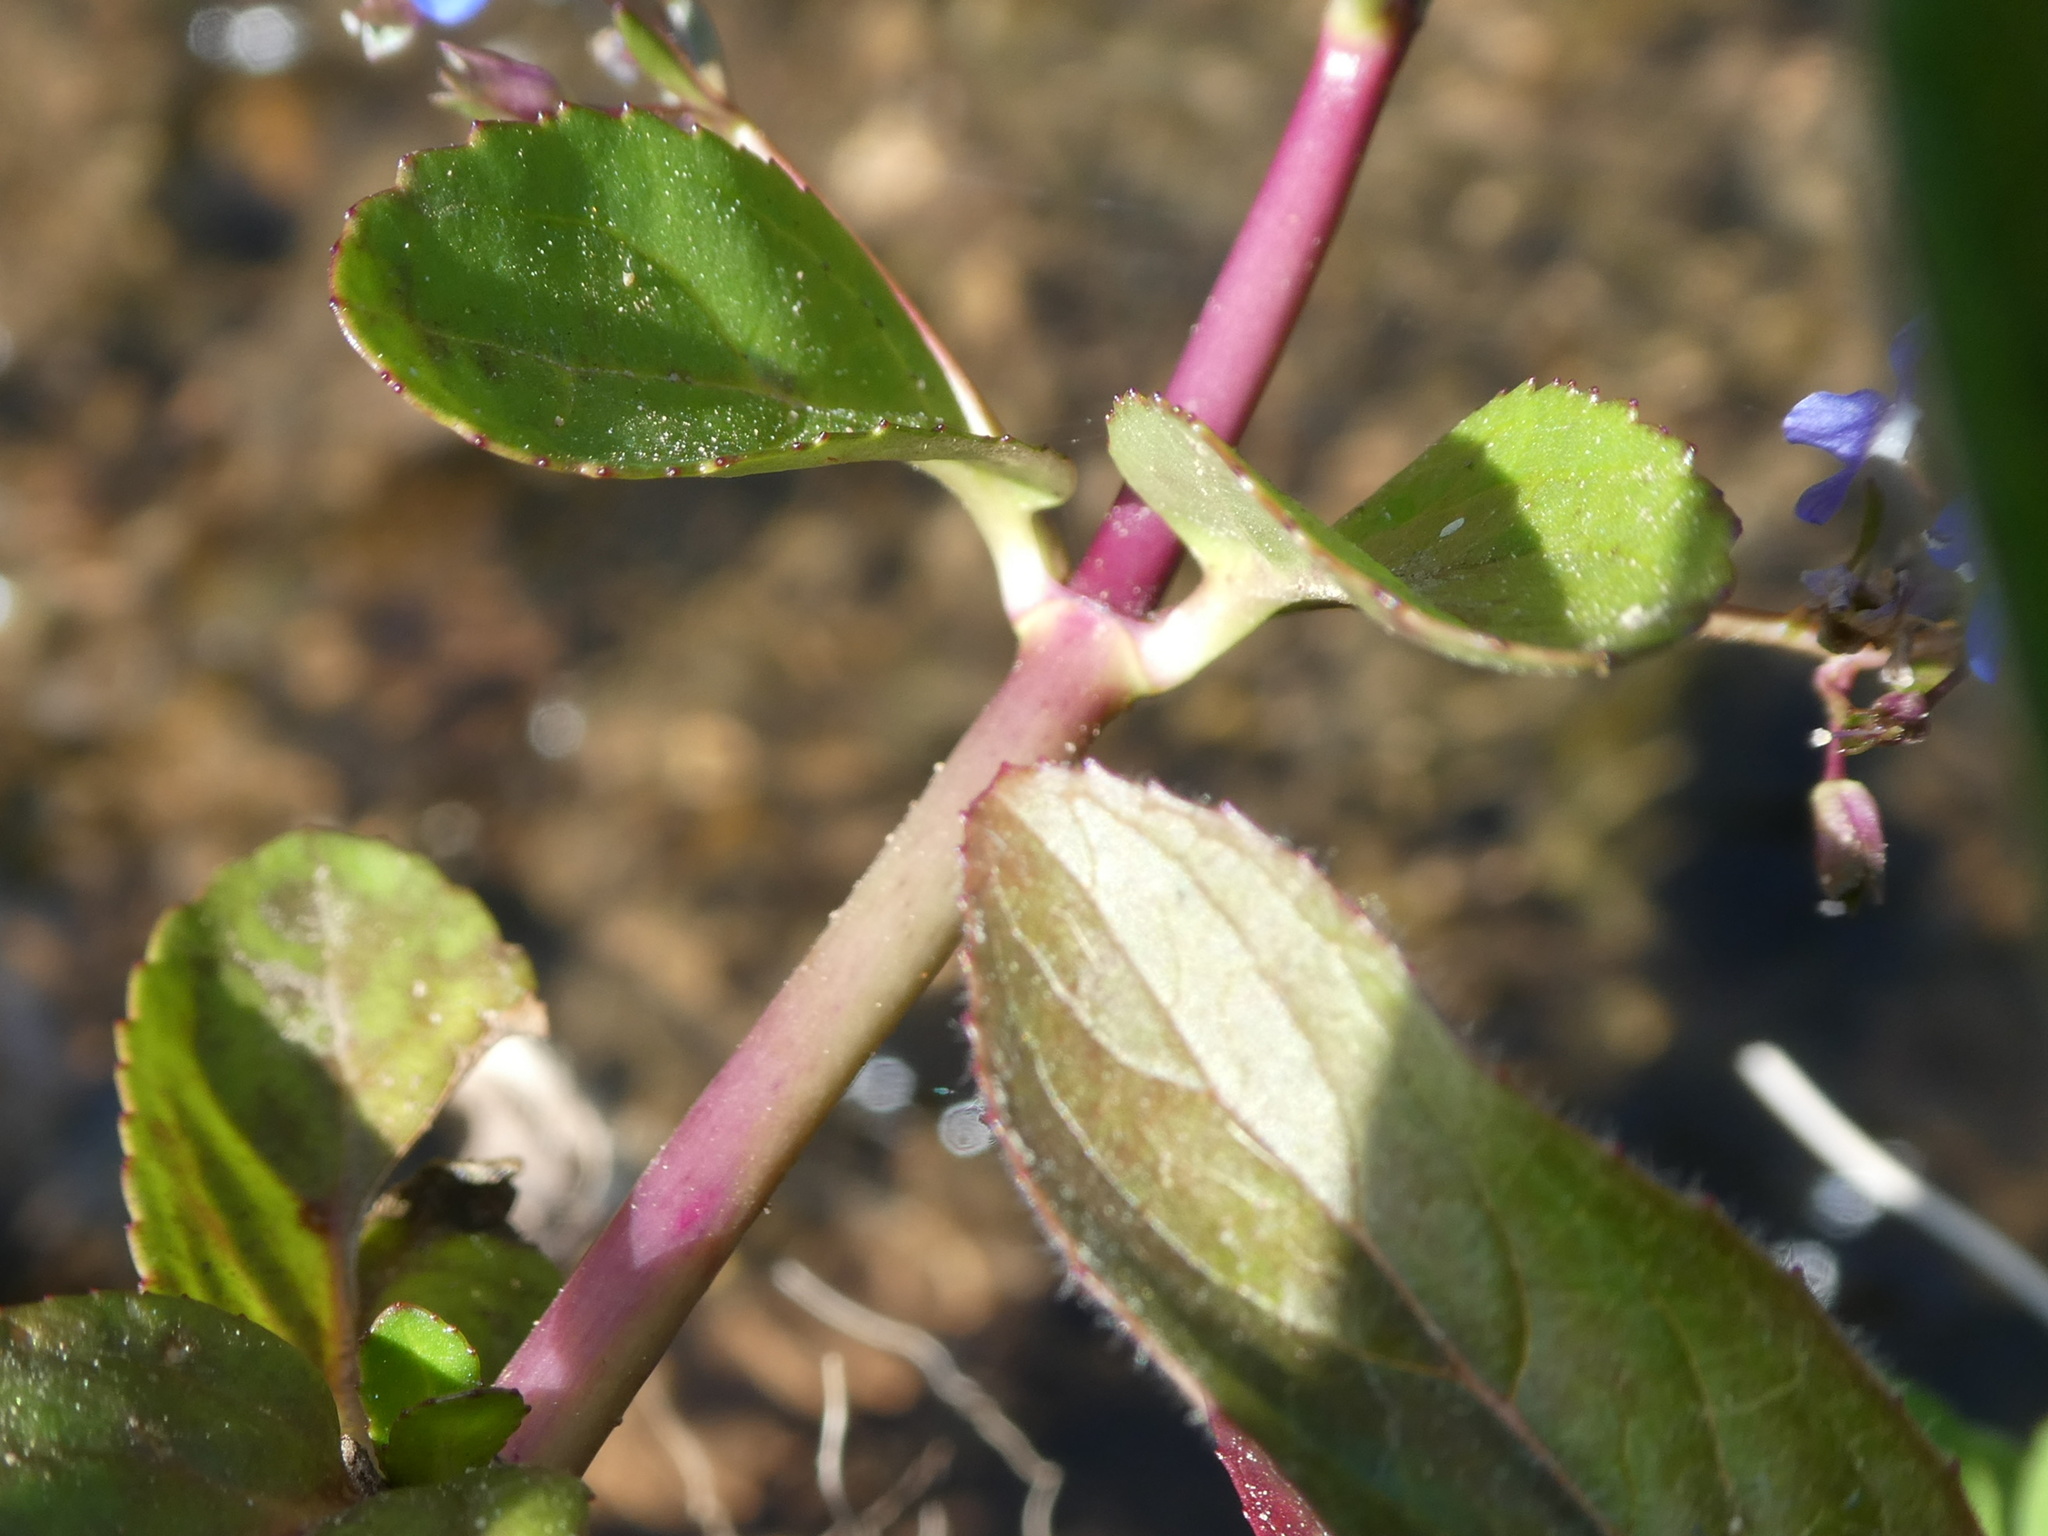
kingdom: Plantae
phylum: Tracheophyta
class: Magnoliopsida
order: Lamiales
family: Plantaginaceae
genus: Veronica
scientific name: Veronica beccabunga
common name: Brooklime
